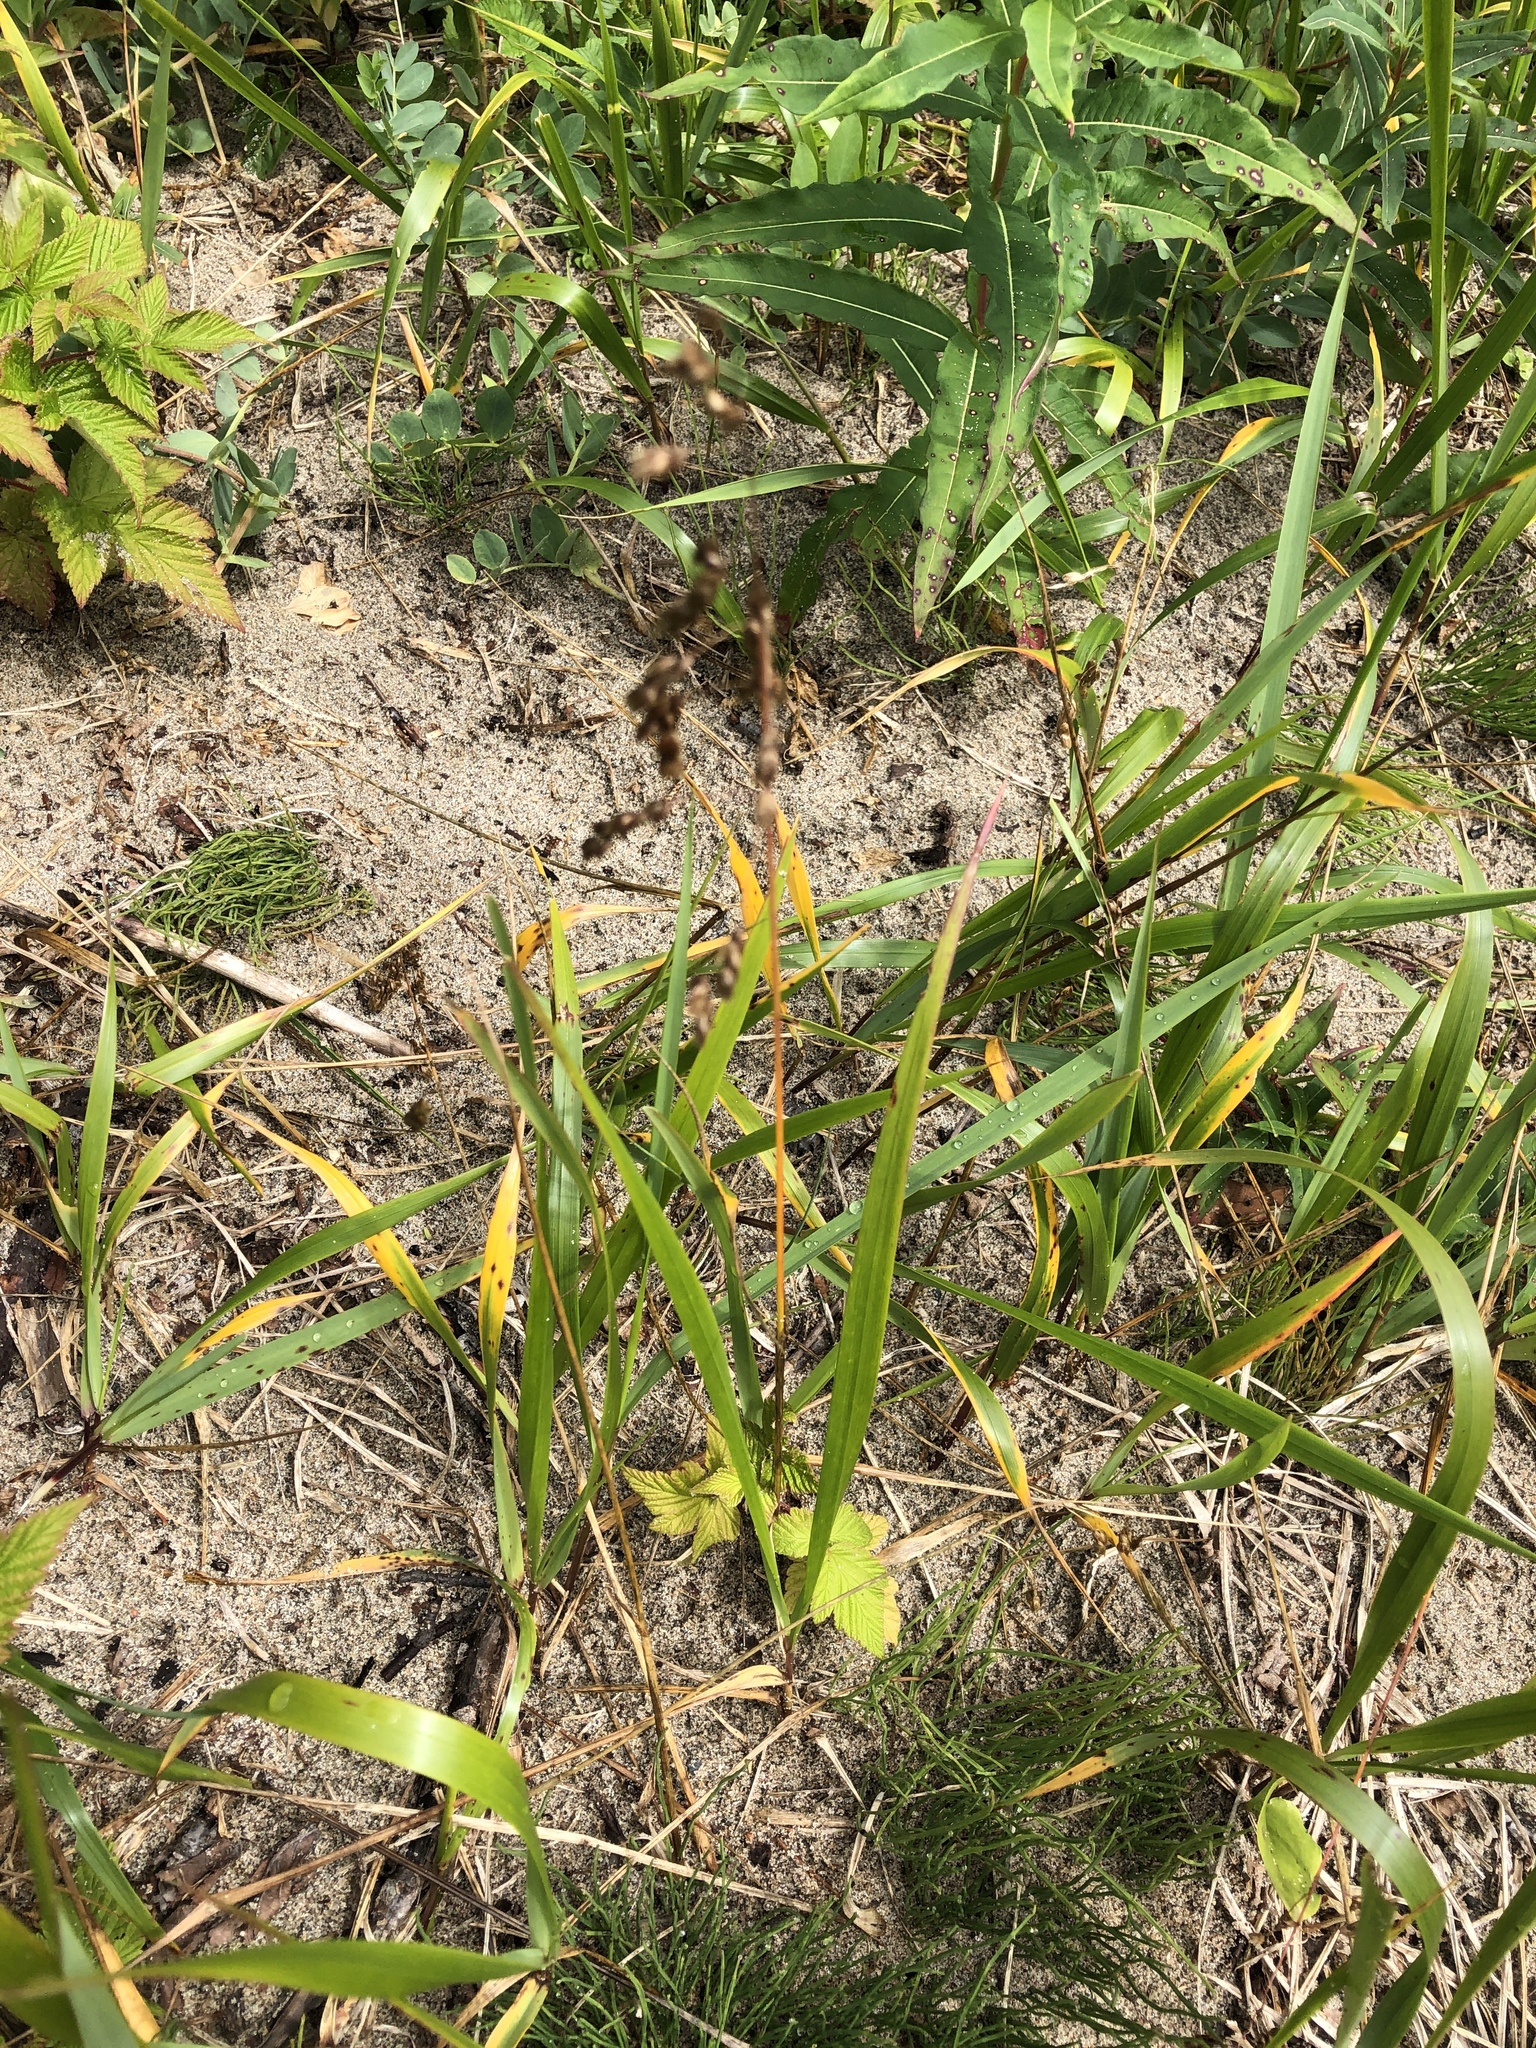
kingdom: Plantae
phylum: Tracheophyta
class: Liliopsida
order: Poales
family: Poaceae
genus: Anthoxanthum
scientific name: Anthoxanthum nitens
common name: Holy grass
